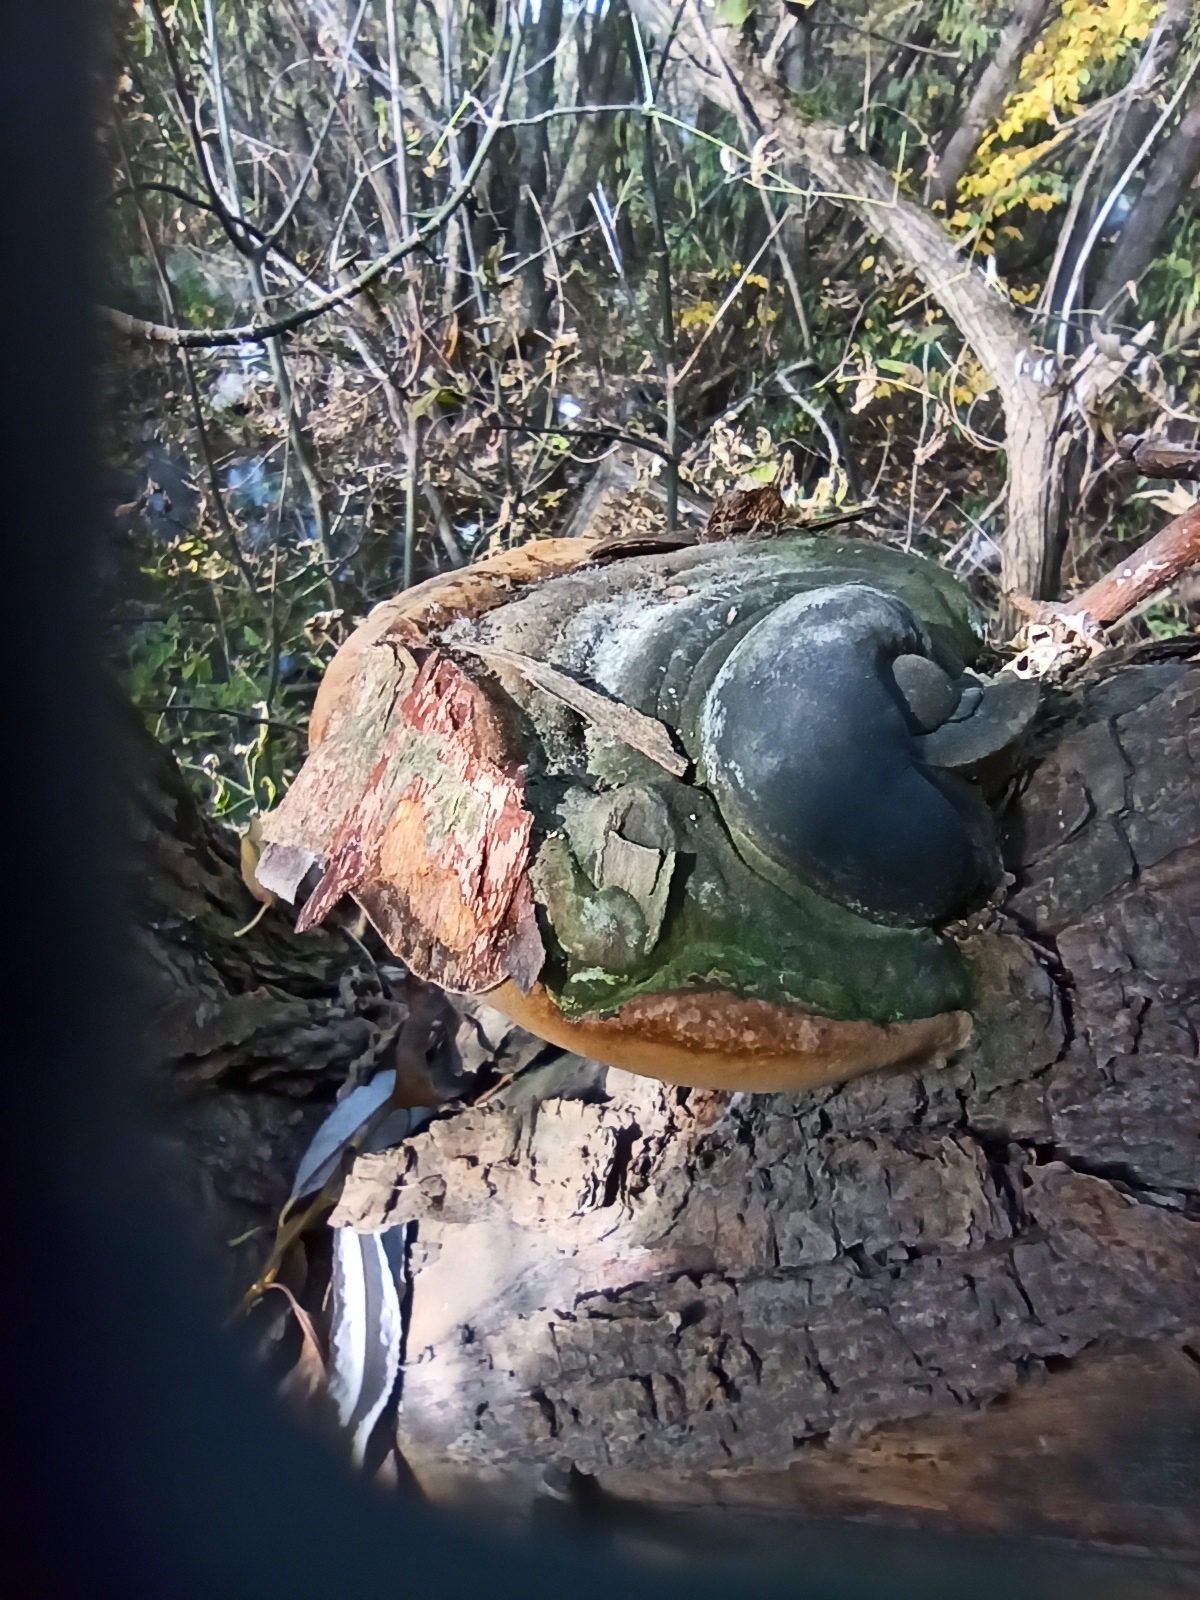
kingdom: Fungi
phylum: Basidiomycota
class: Agaricomycetes
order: Hymenochaetales
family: Hymenochaetaceae
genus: Fomitiporia
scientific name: Fomitiporia robusta
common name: Robust bracket
